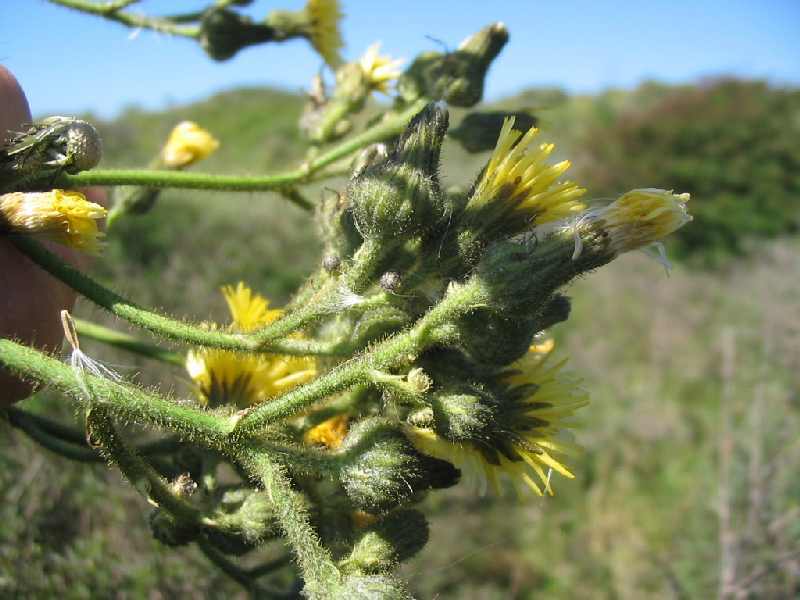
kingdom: Plantae
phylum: Tracheophyta
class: Magnoliopsida
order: Asterales
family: Asteraceae
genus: Sonchus
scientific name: Sonchus palustris
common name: Marsh sow-thistle
